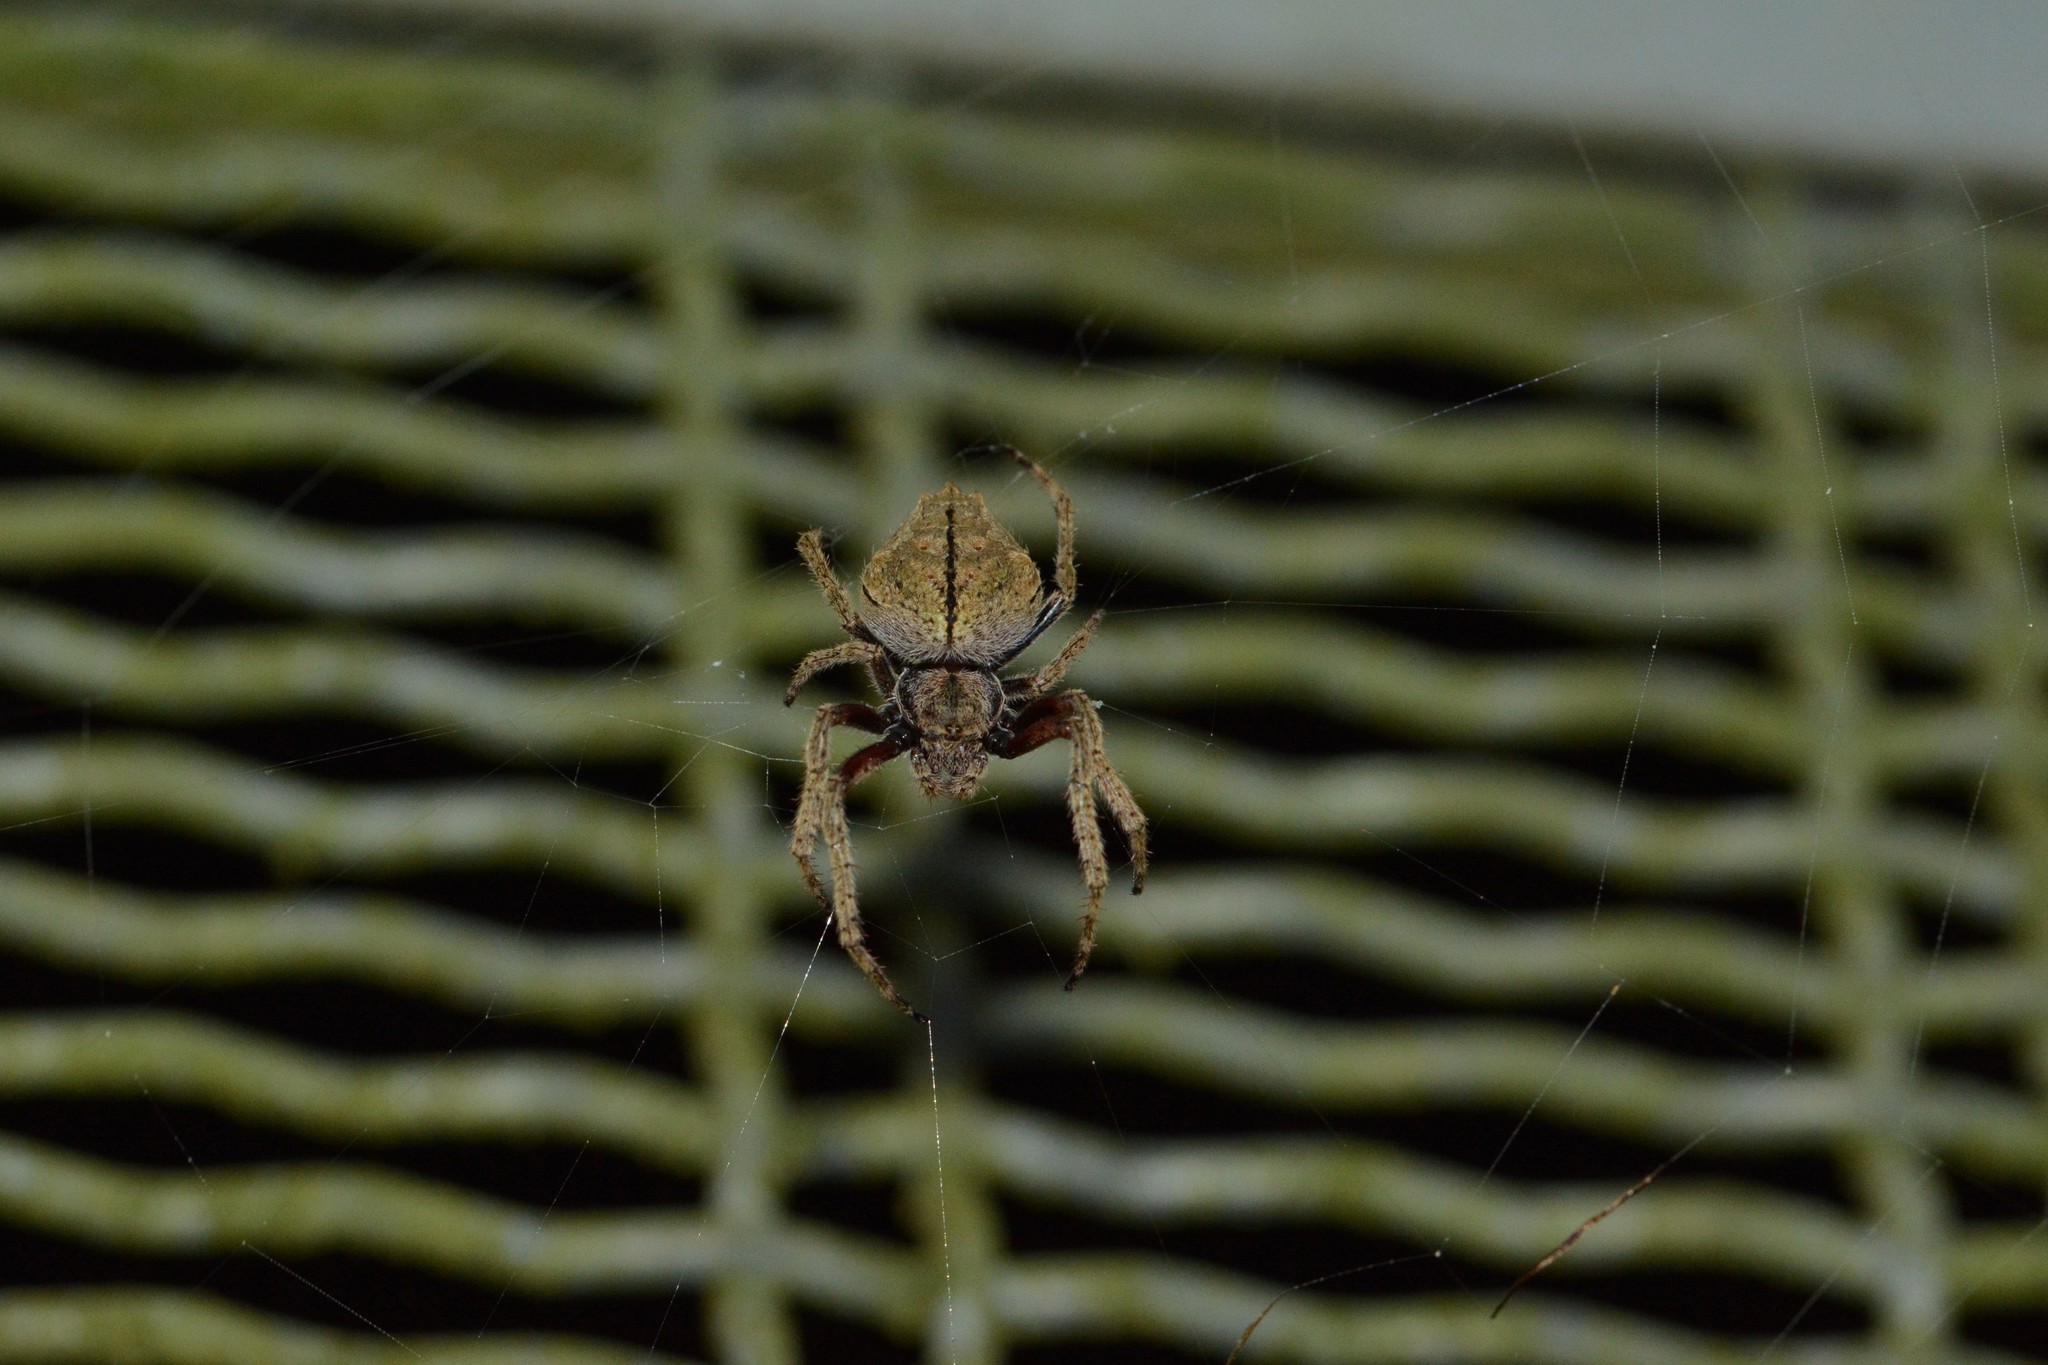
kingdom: Animalia
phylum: Arthropoda
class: Arachnida
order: Araneae
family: Araneidae
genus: Eriophora
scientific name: Eriophora pustulosa
